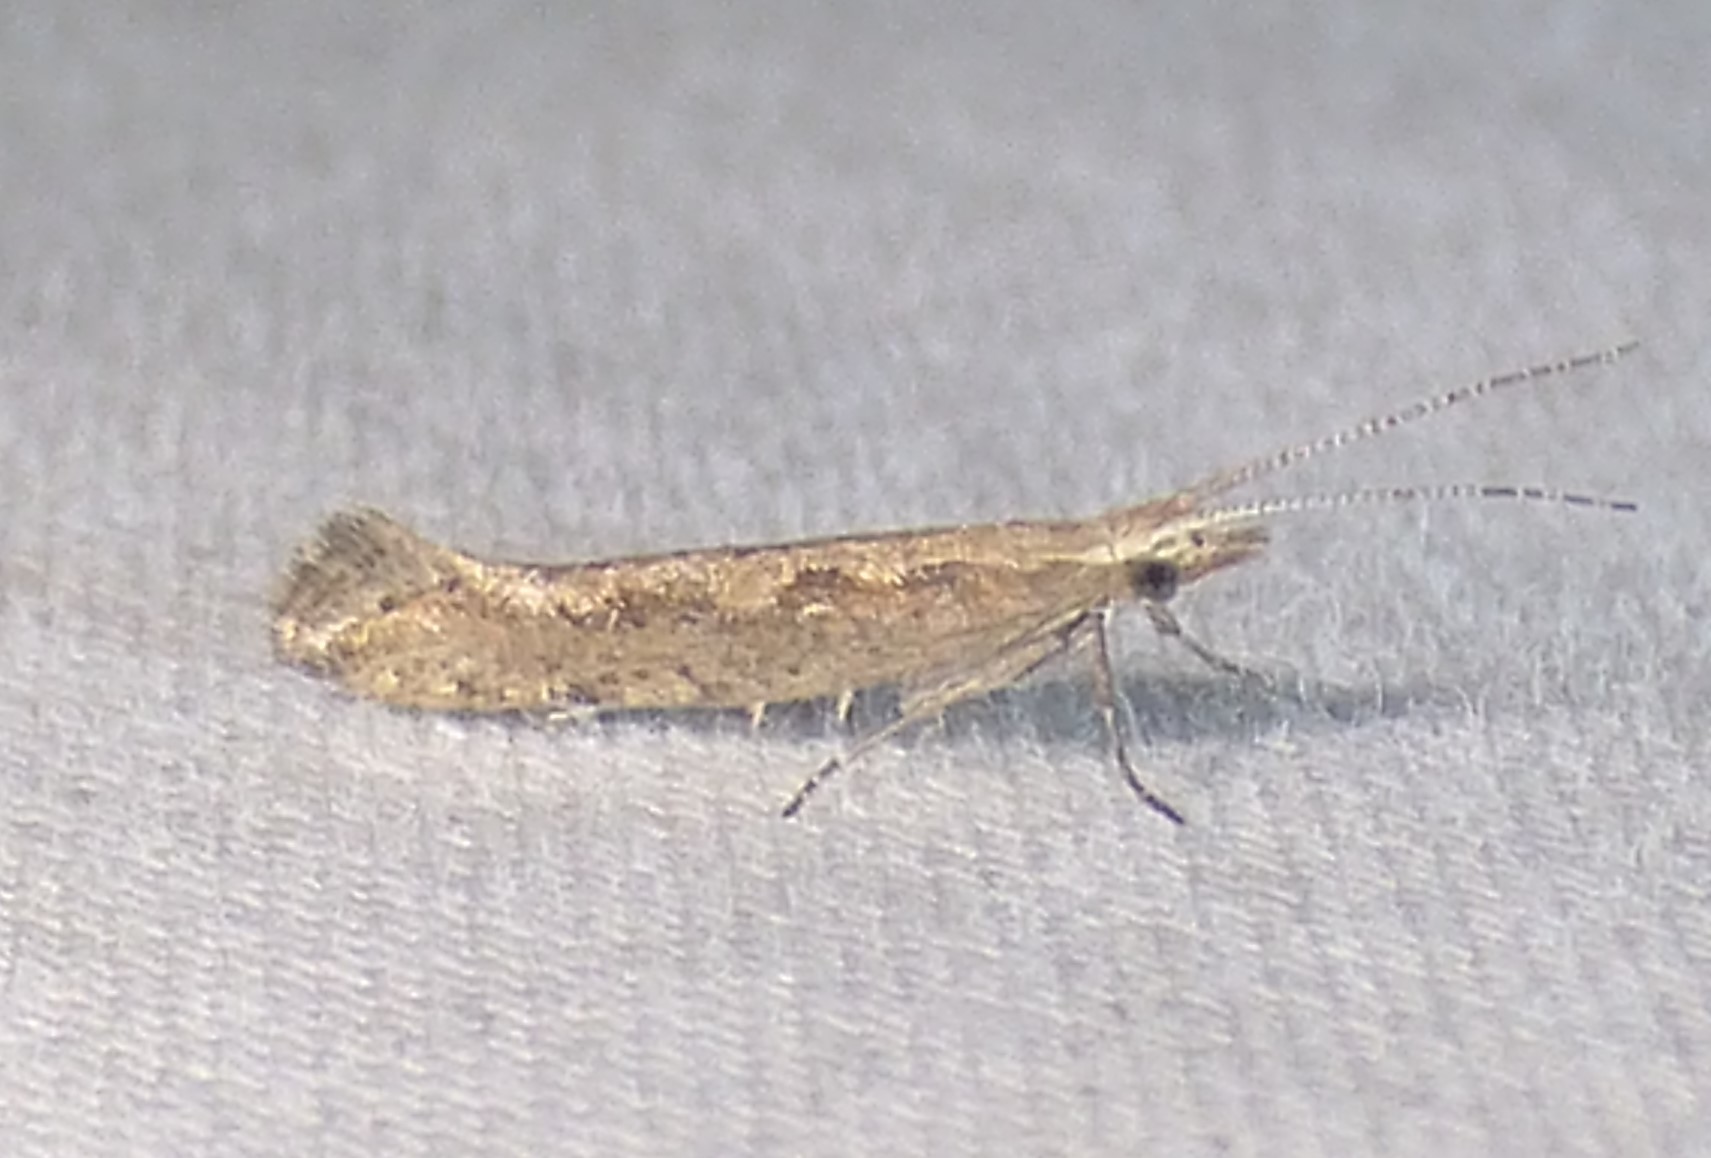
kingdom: Animalia
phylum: Arthropoda
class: Insecta
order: Lepidoptera
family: Plutellidae
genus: Plutella
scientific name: Plutella xylostella
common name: Diamond-back moth
